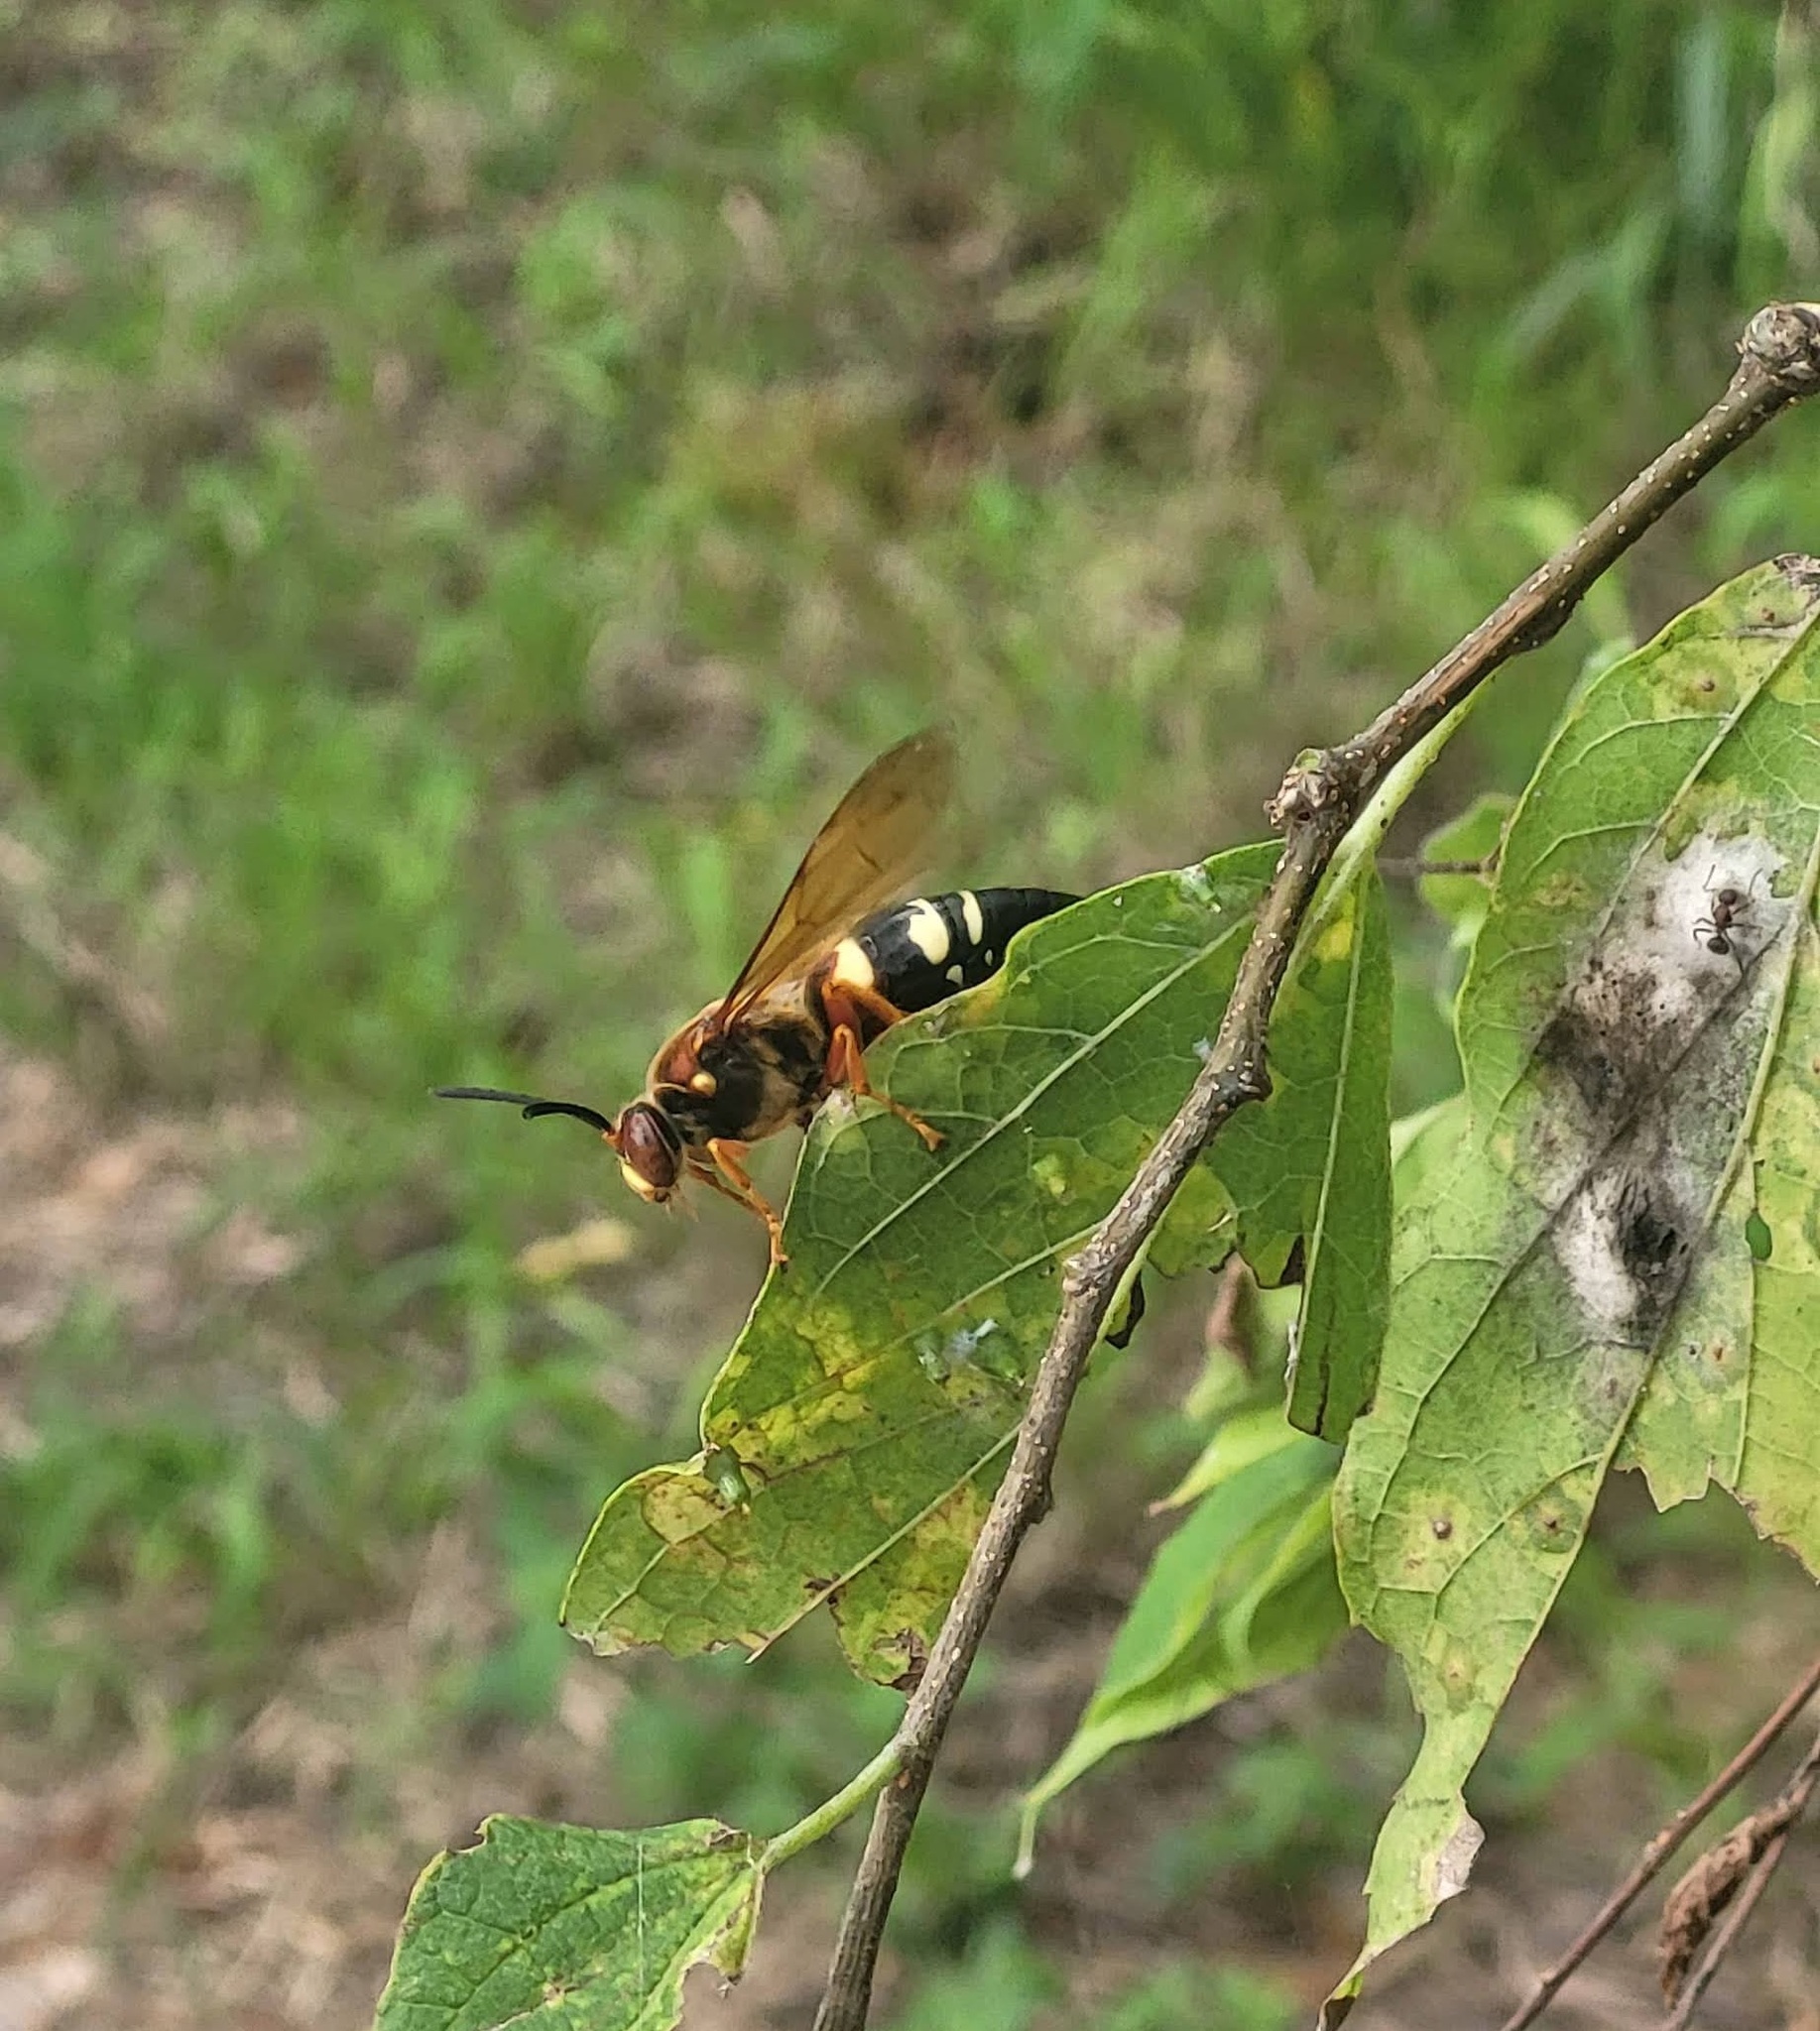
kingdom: Animalia
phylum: Arthropoda
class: Insecta
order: Hymenoptera
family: Crabronidae
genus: Sphecius
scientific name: Sphecius speciosus
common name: Cicada killer
